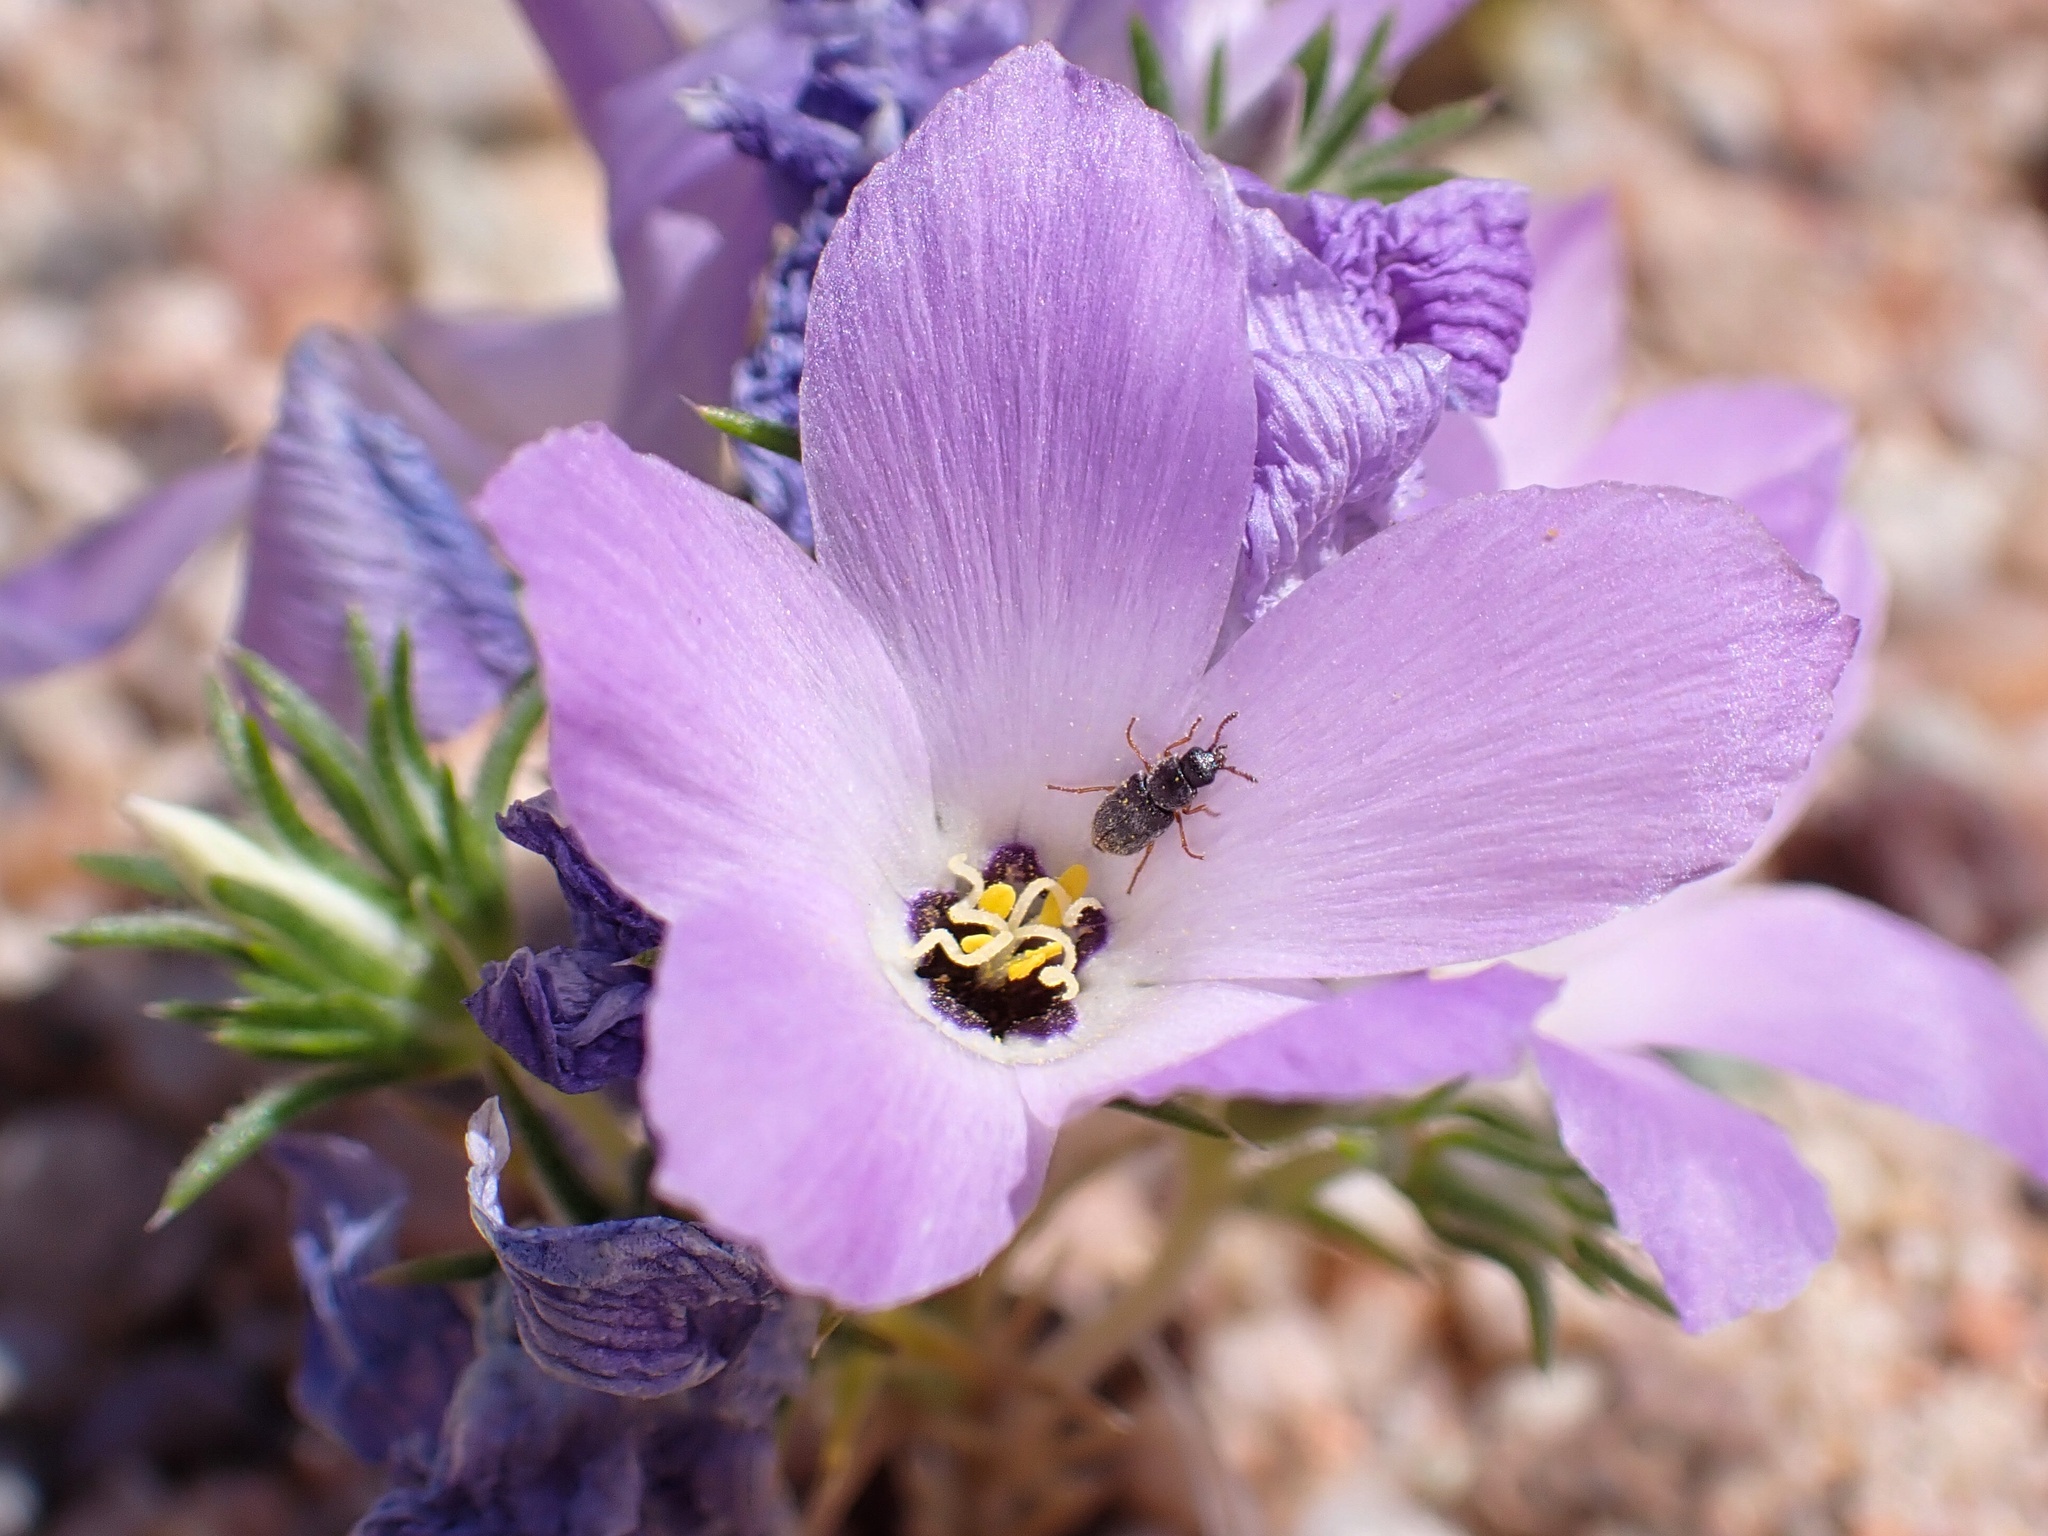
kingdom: Plantae
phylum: Tracheophyta
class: Magnoliopsida
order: Ericales
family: Polemoniaceae
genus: Linanthus
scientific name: Linanthus parryae
